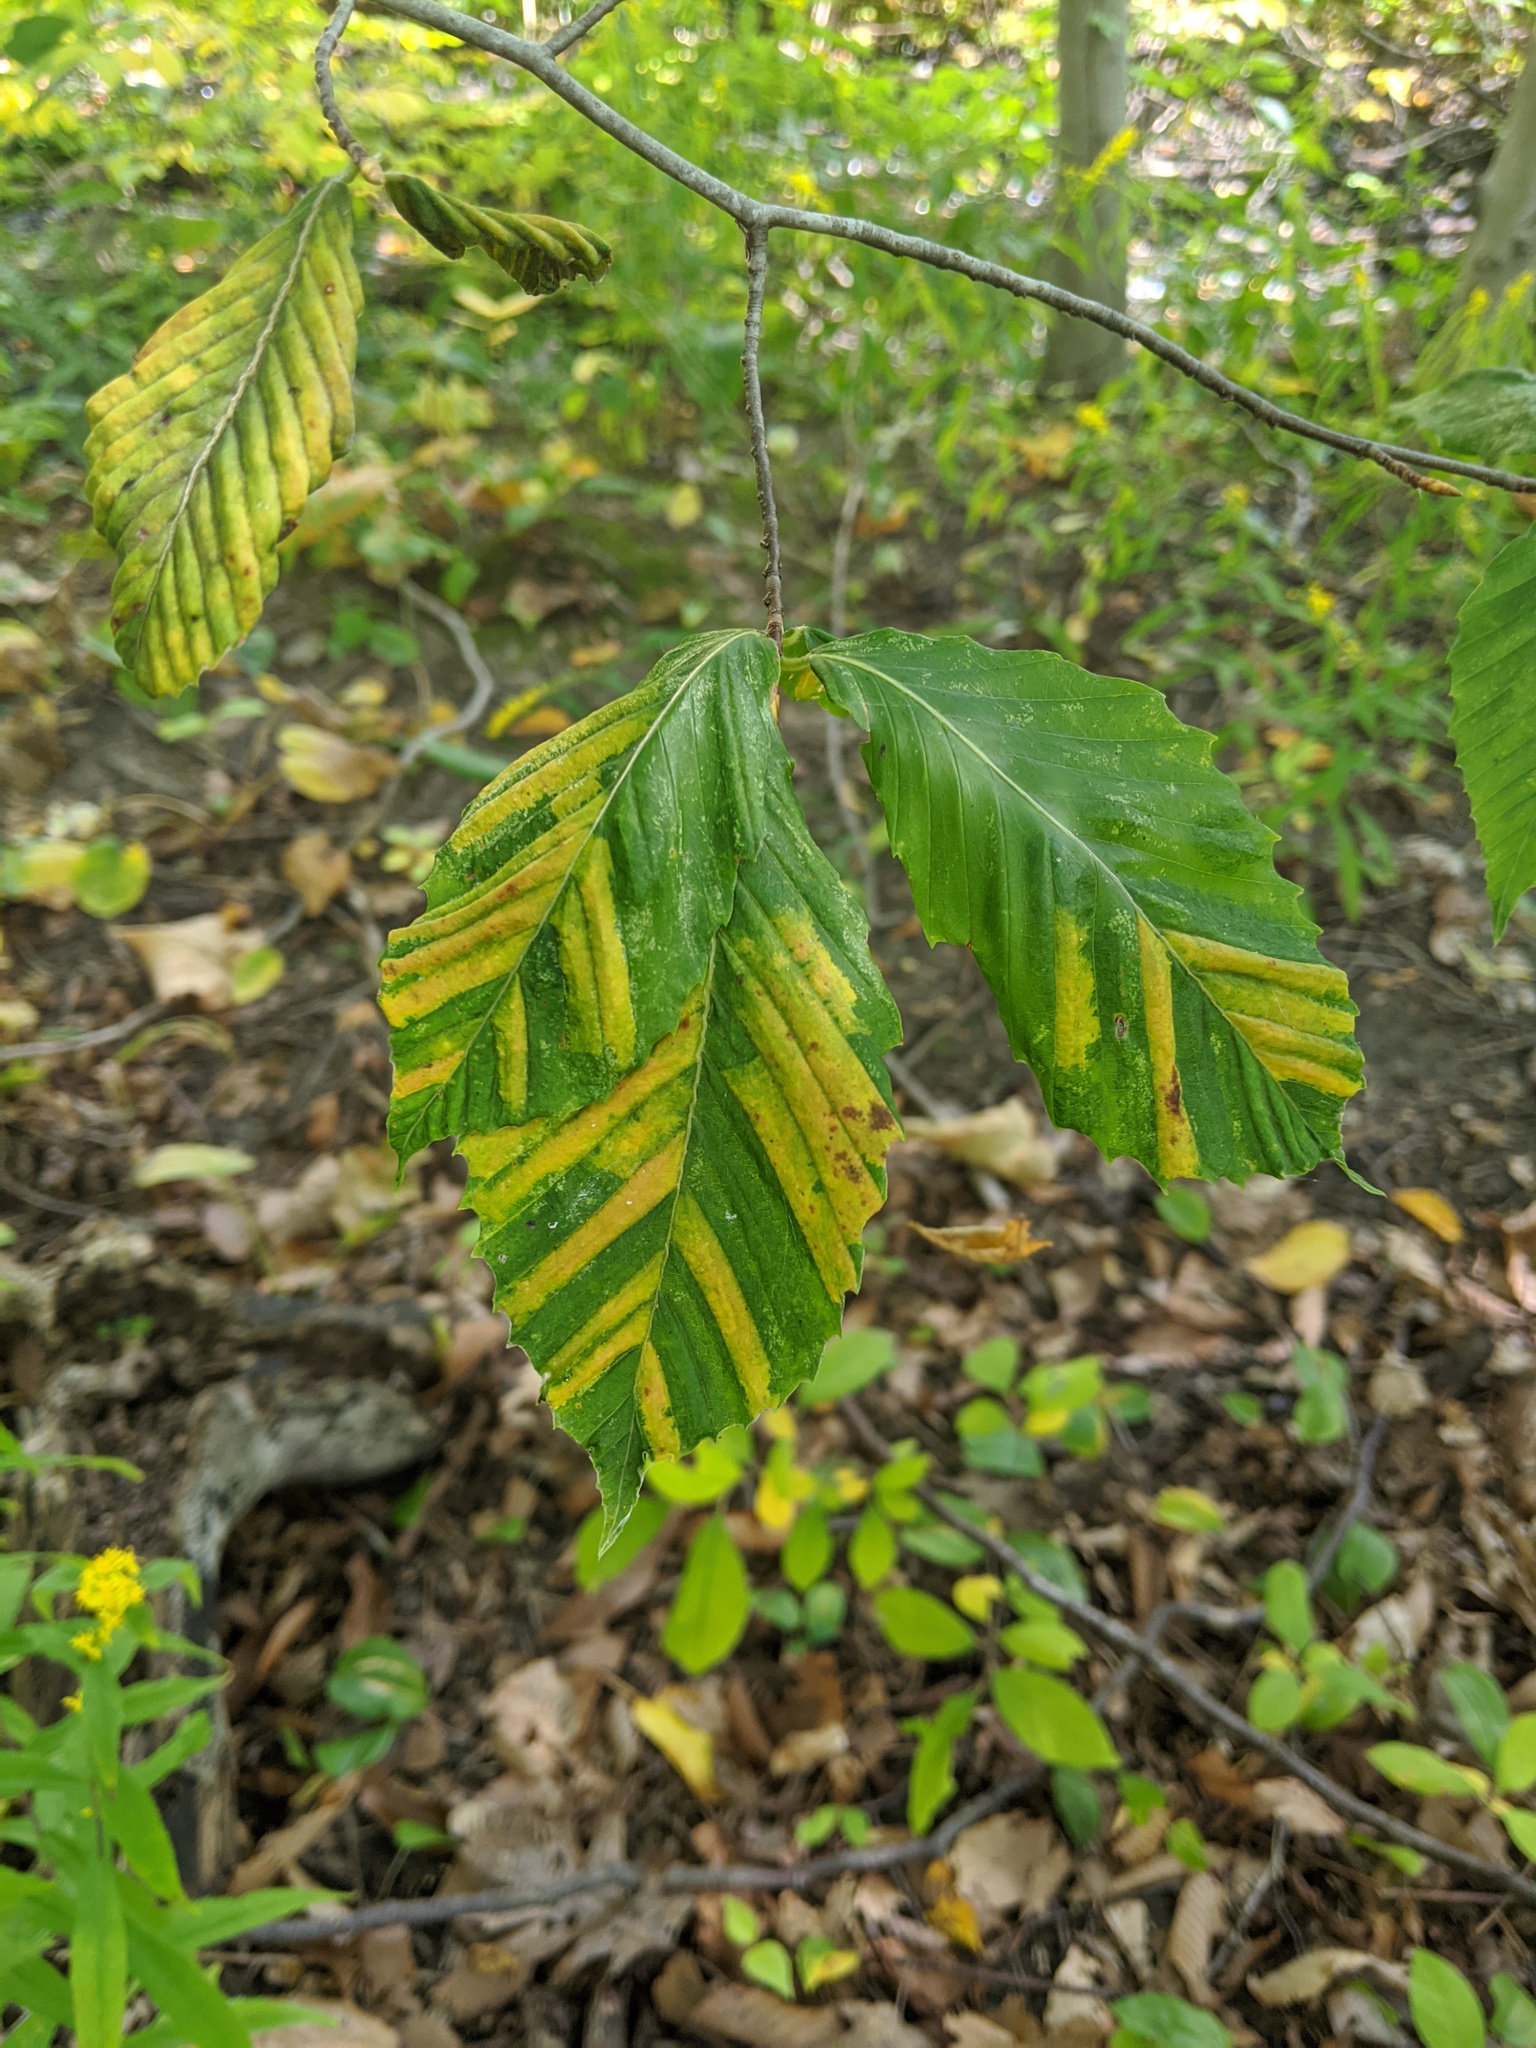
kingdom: Animalia
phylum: Nematoda
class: Chromadorea
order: Rhabditida
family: Anguinidae
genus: Litylenchus
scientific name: Litylenchus crenatae
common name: Beech leaf disease
